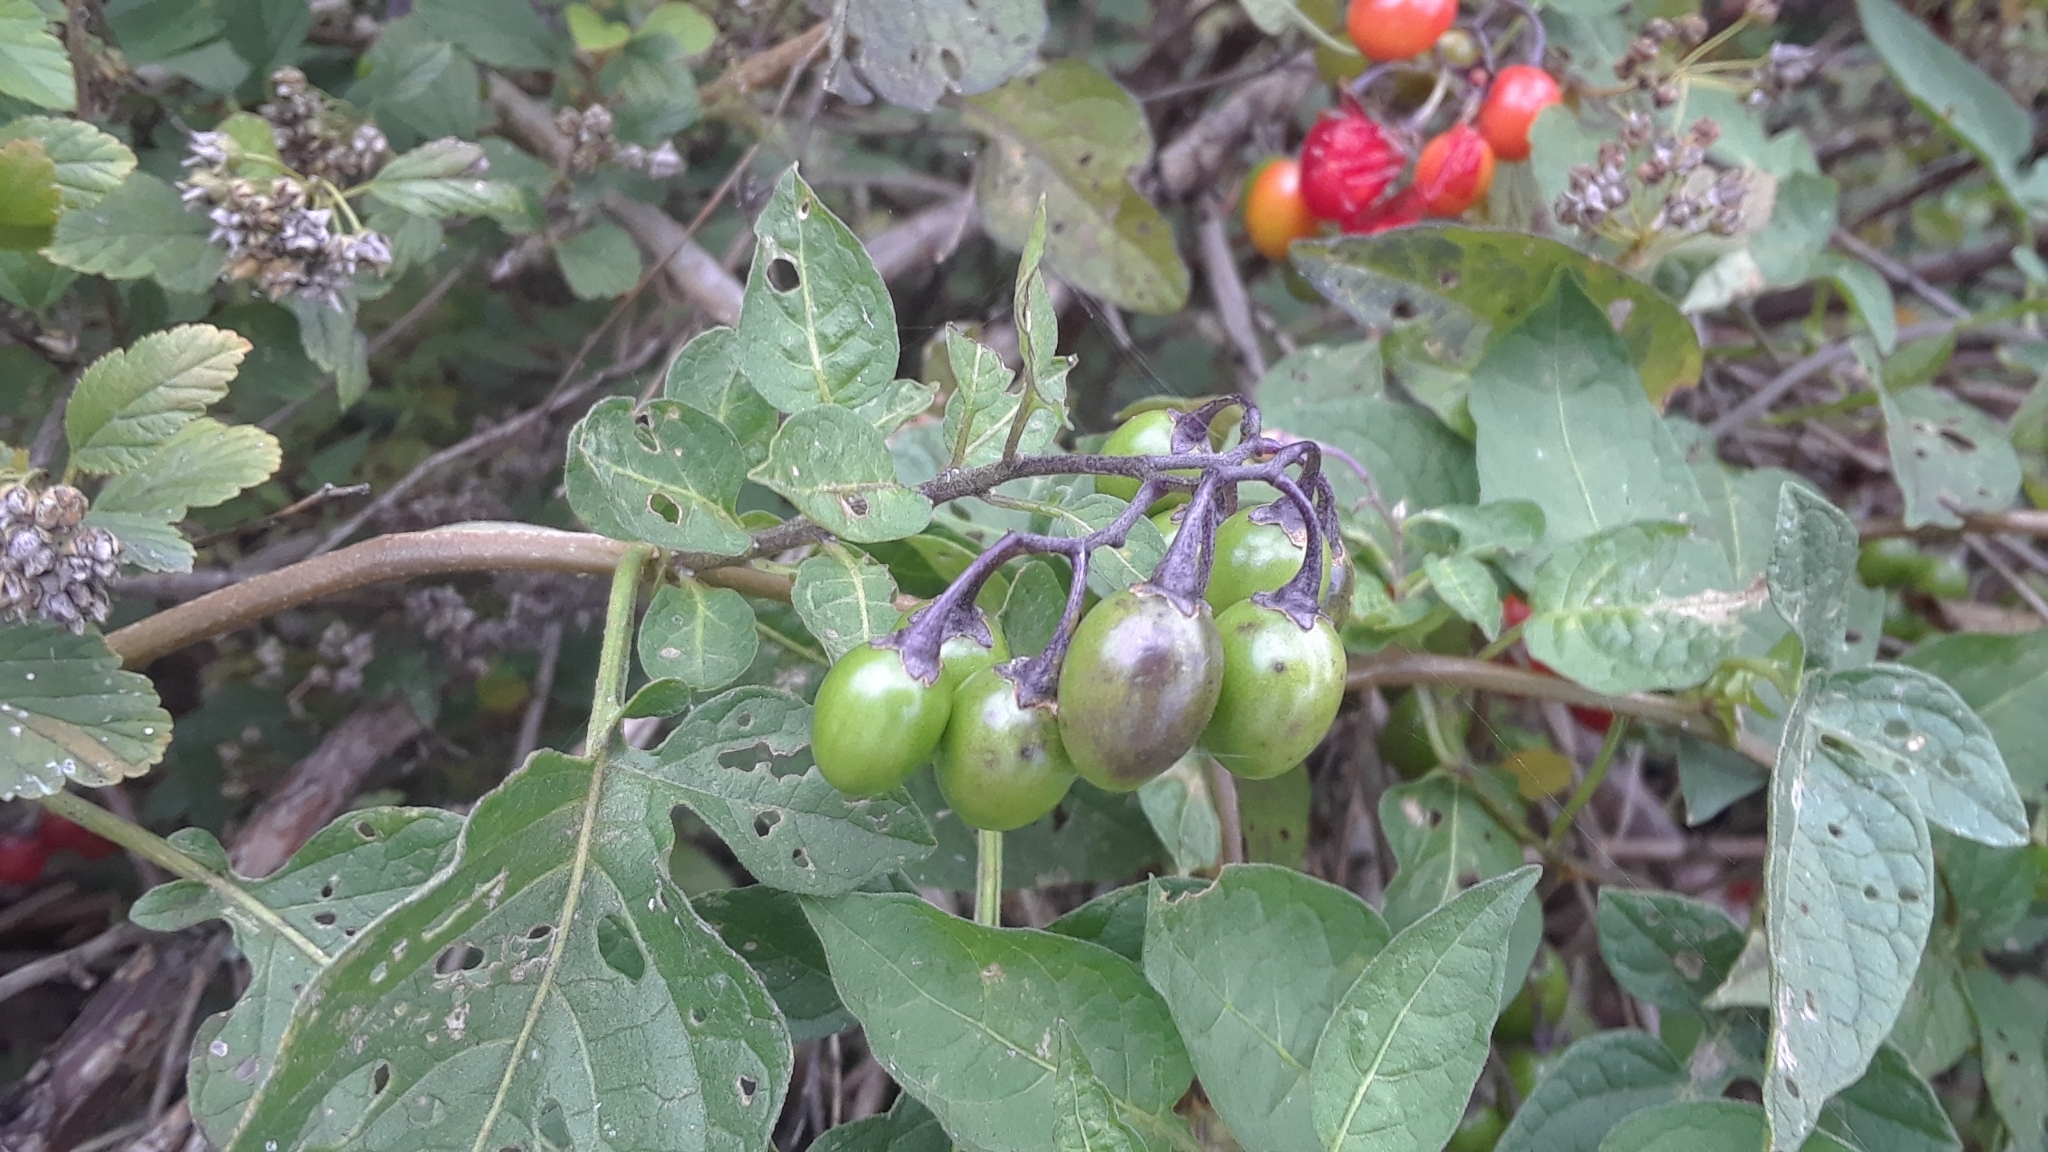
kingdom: Plantae
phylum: Tracheophyta
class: Magnoliopsida
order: Solanales
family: Solanaceae
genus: Solanum
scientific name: Solanum dulcamara
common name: Climbing nightshade
